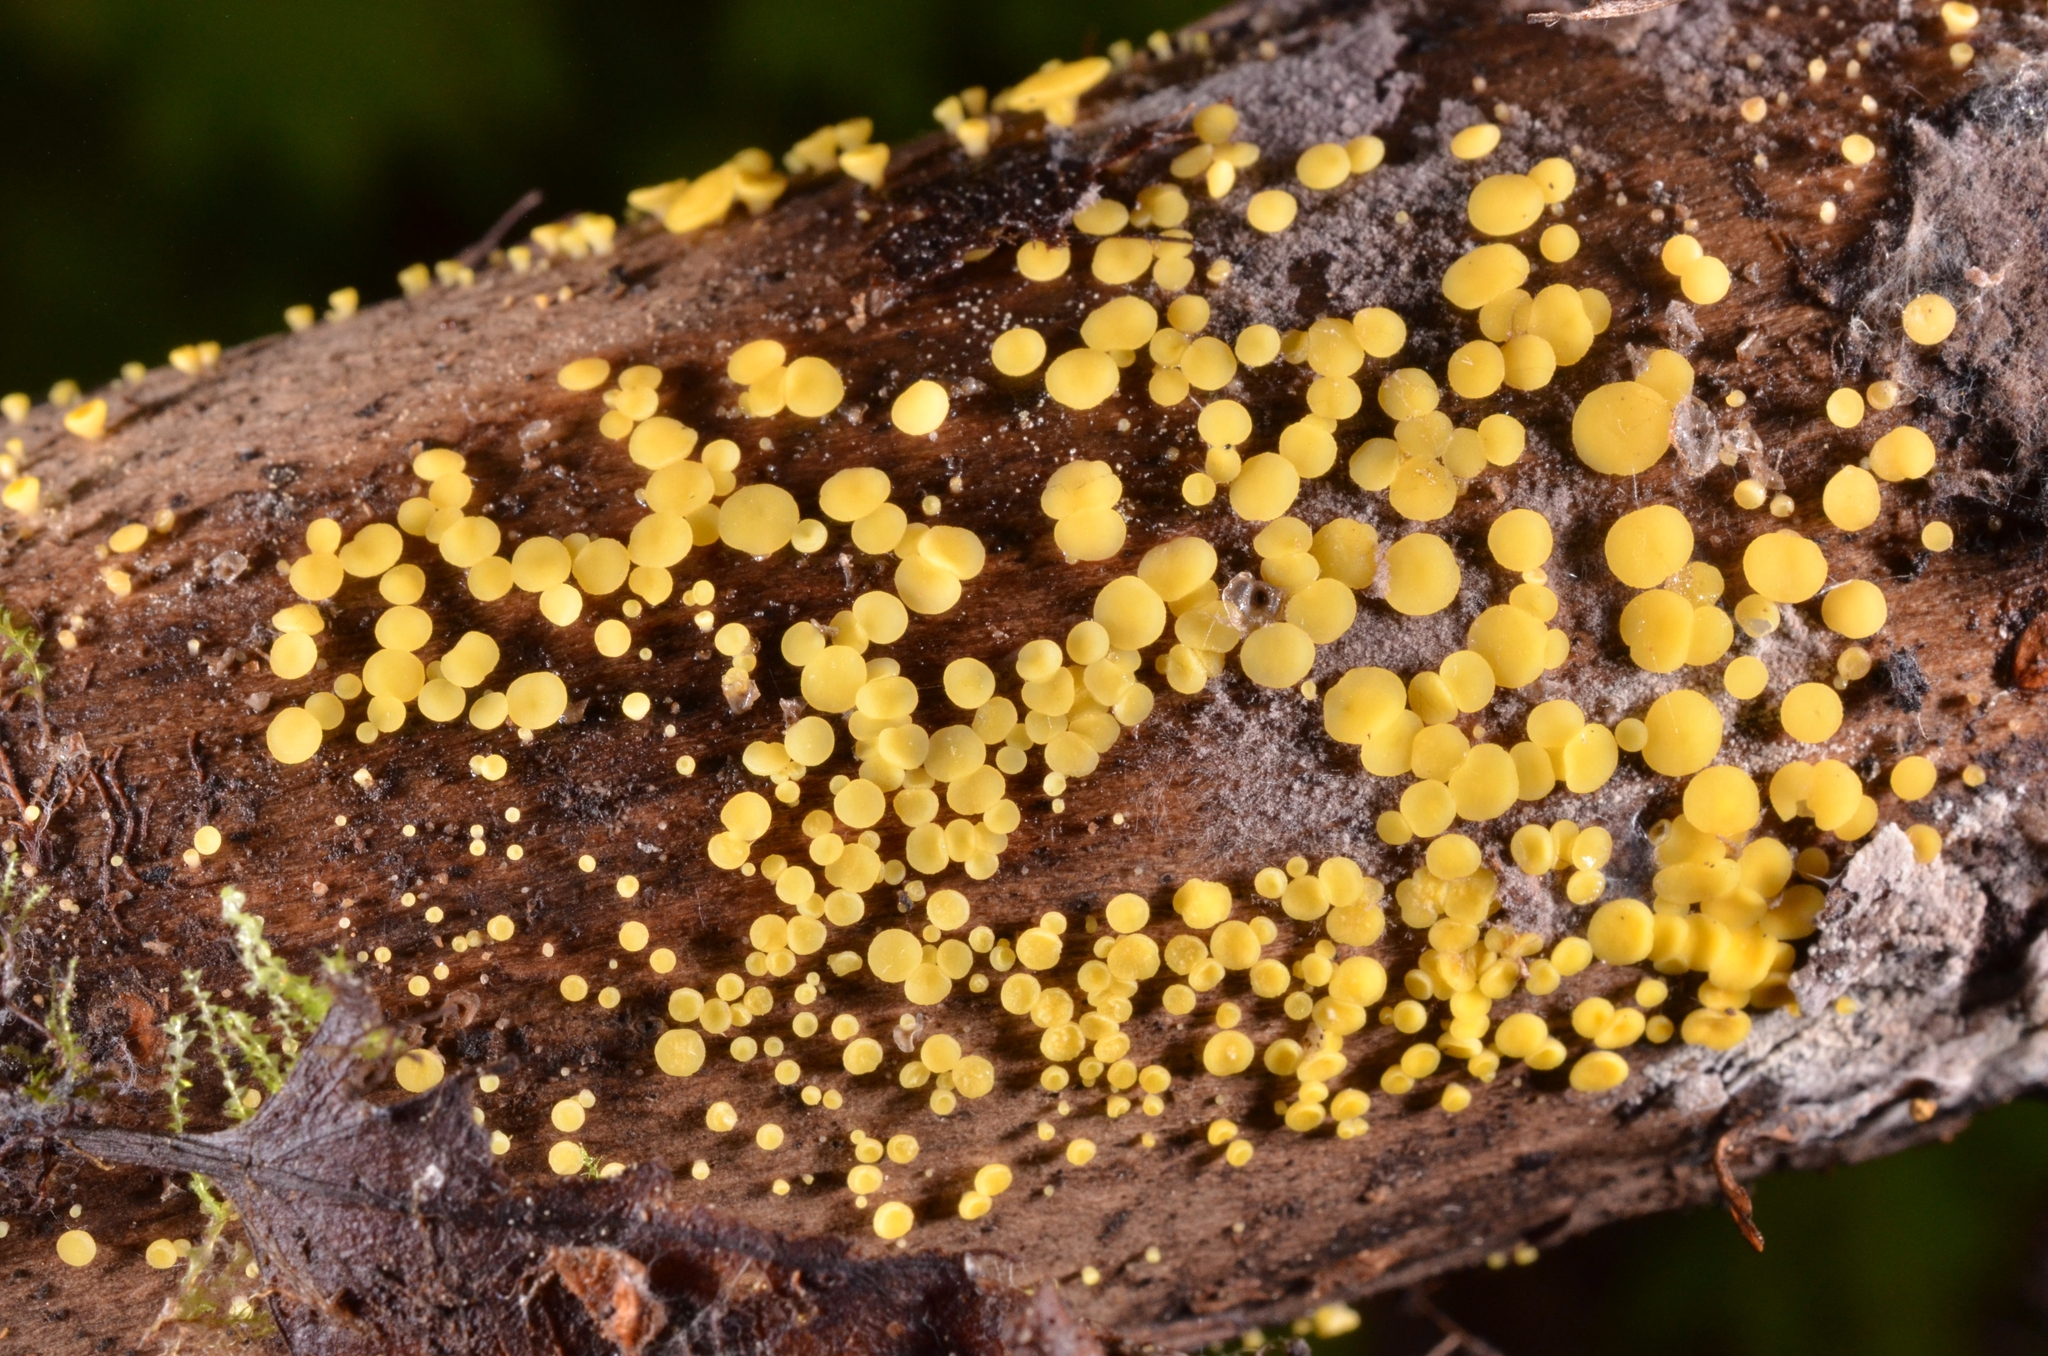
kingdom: Fungi
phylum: Ascomycota
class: Leotiomycetes
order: Helotiales
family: Pezizellaceae
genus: Calycina
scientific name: Calycina citrina
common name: Yellow fairy cups
